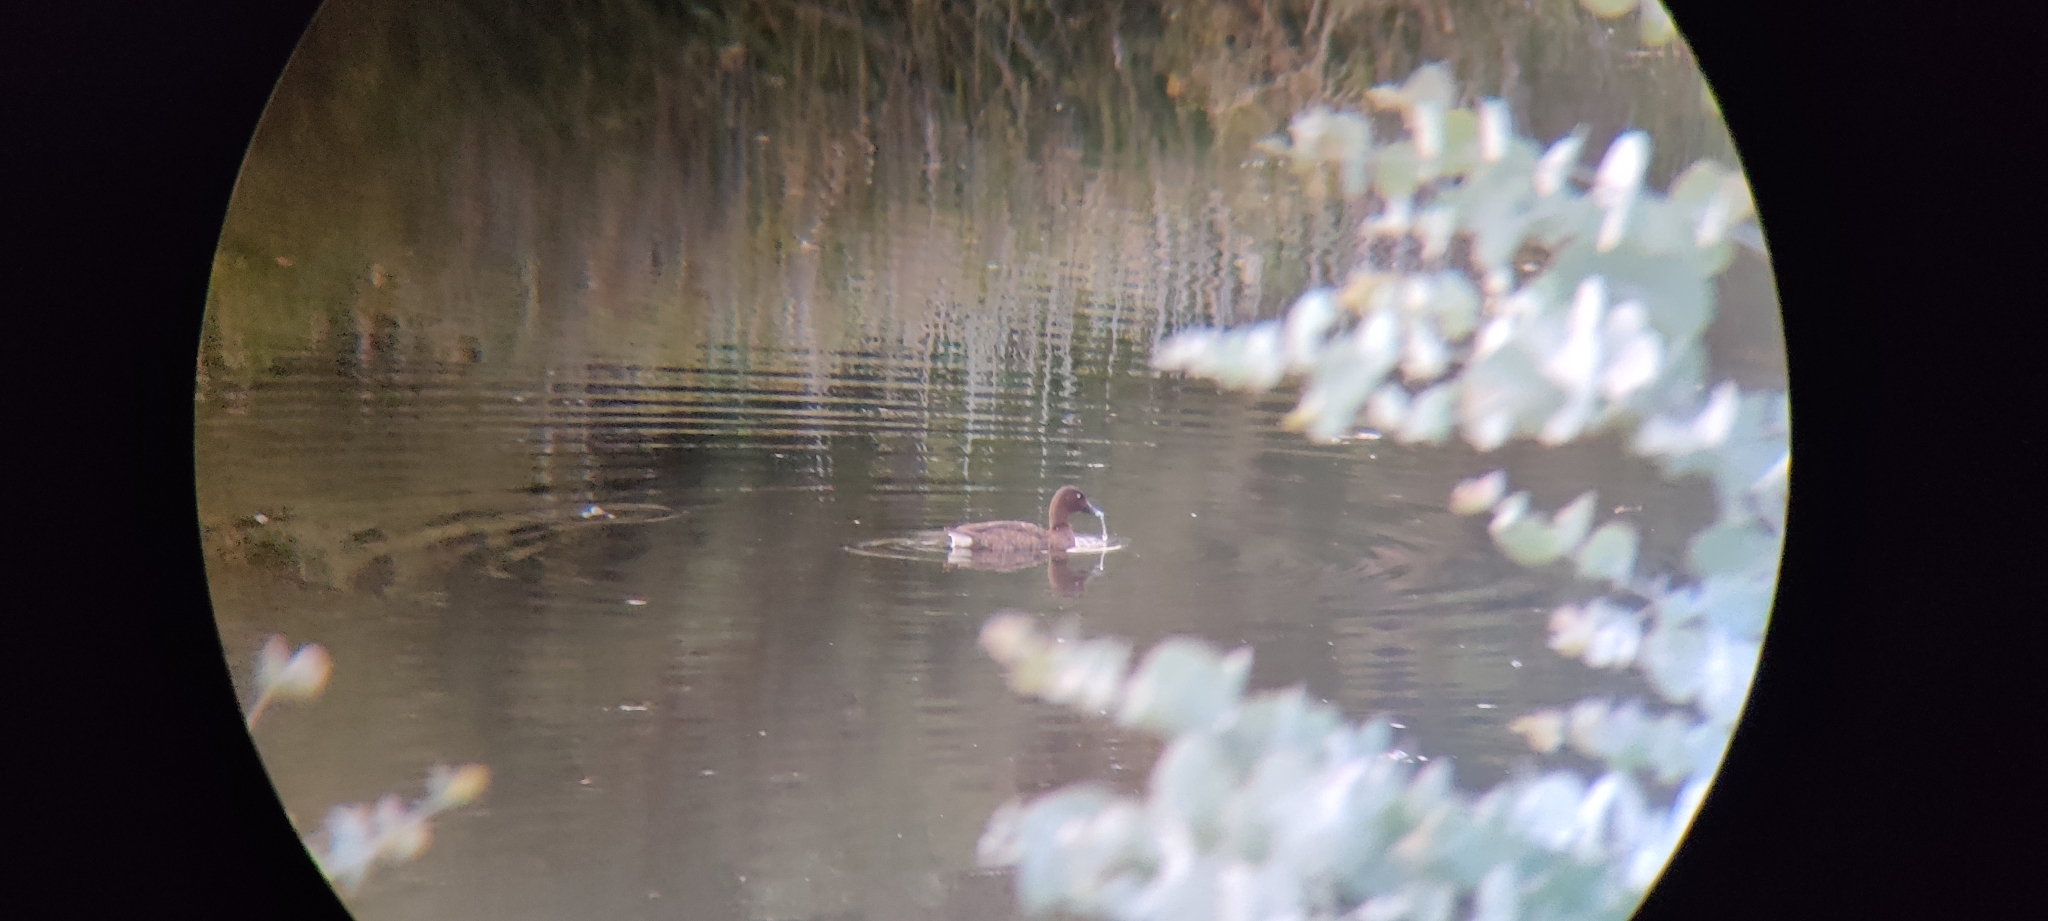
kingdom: Animalia
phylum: Chordata
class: Aves
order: Anseriformes
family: Anatidae
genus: Aythya
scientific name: Aythya australis
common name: Hardhead
